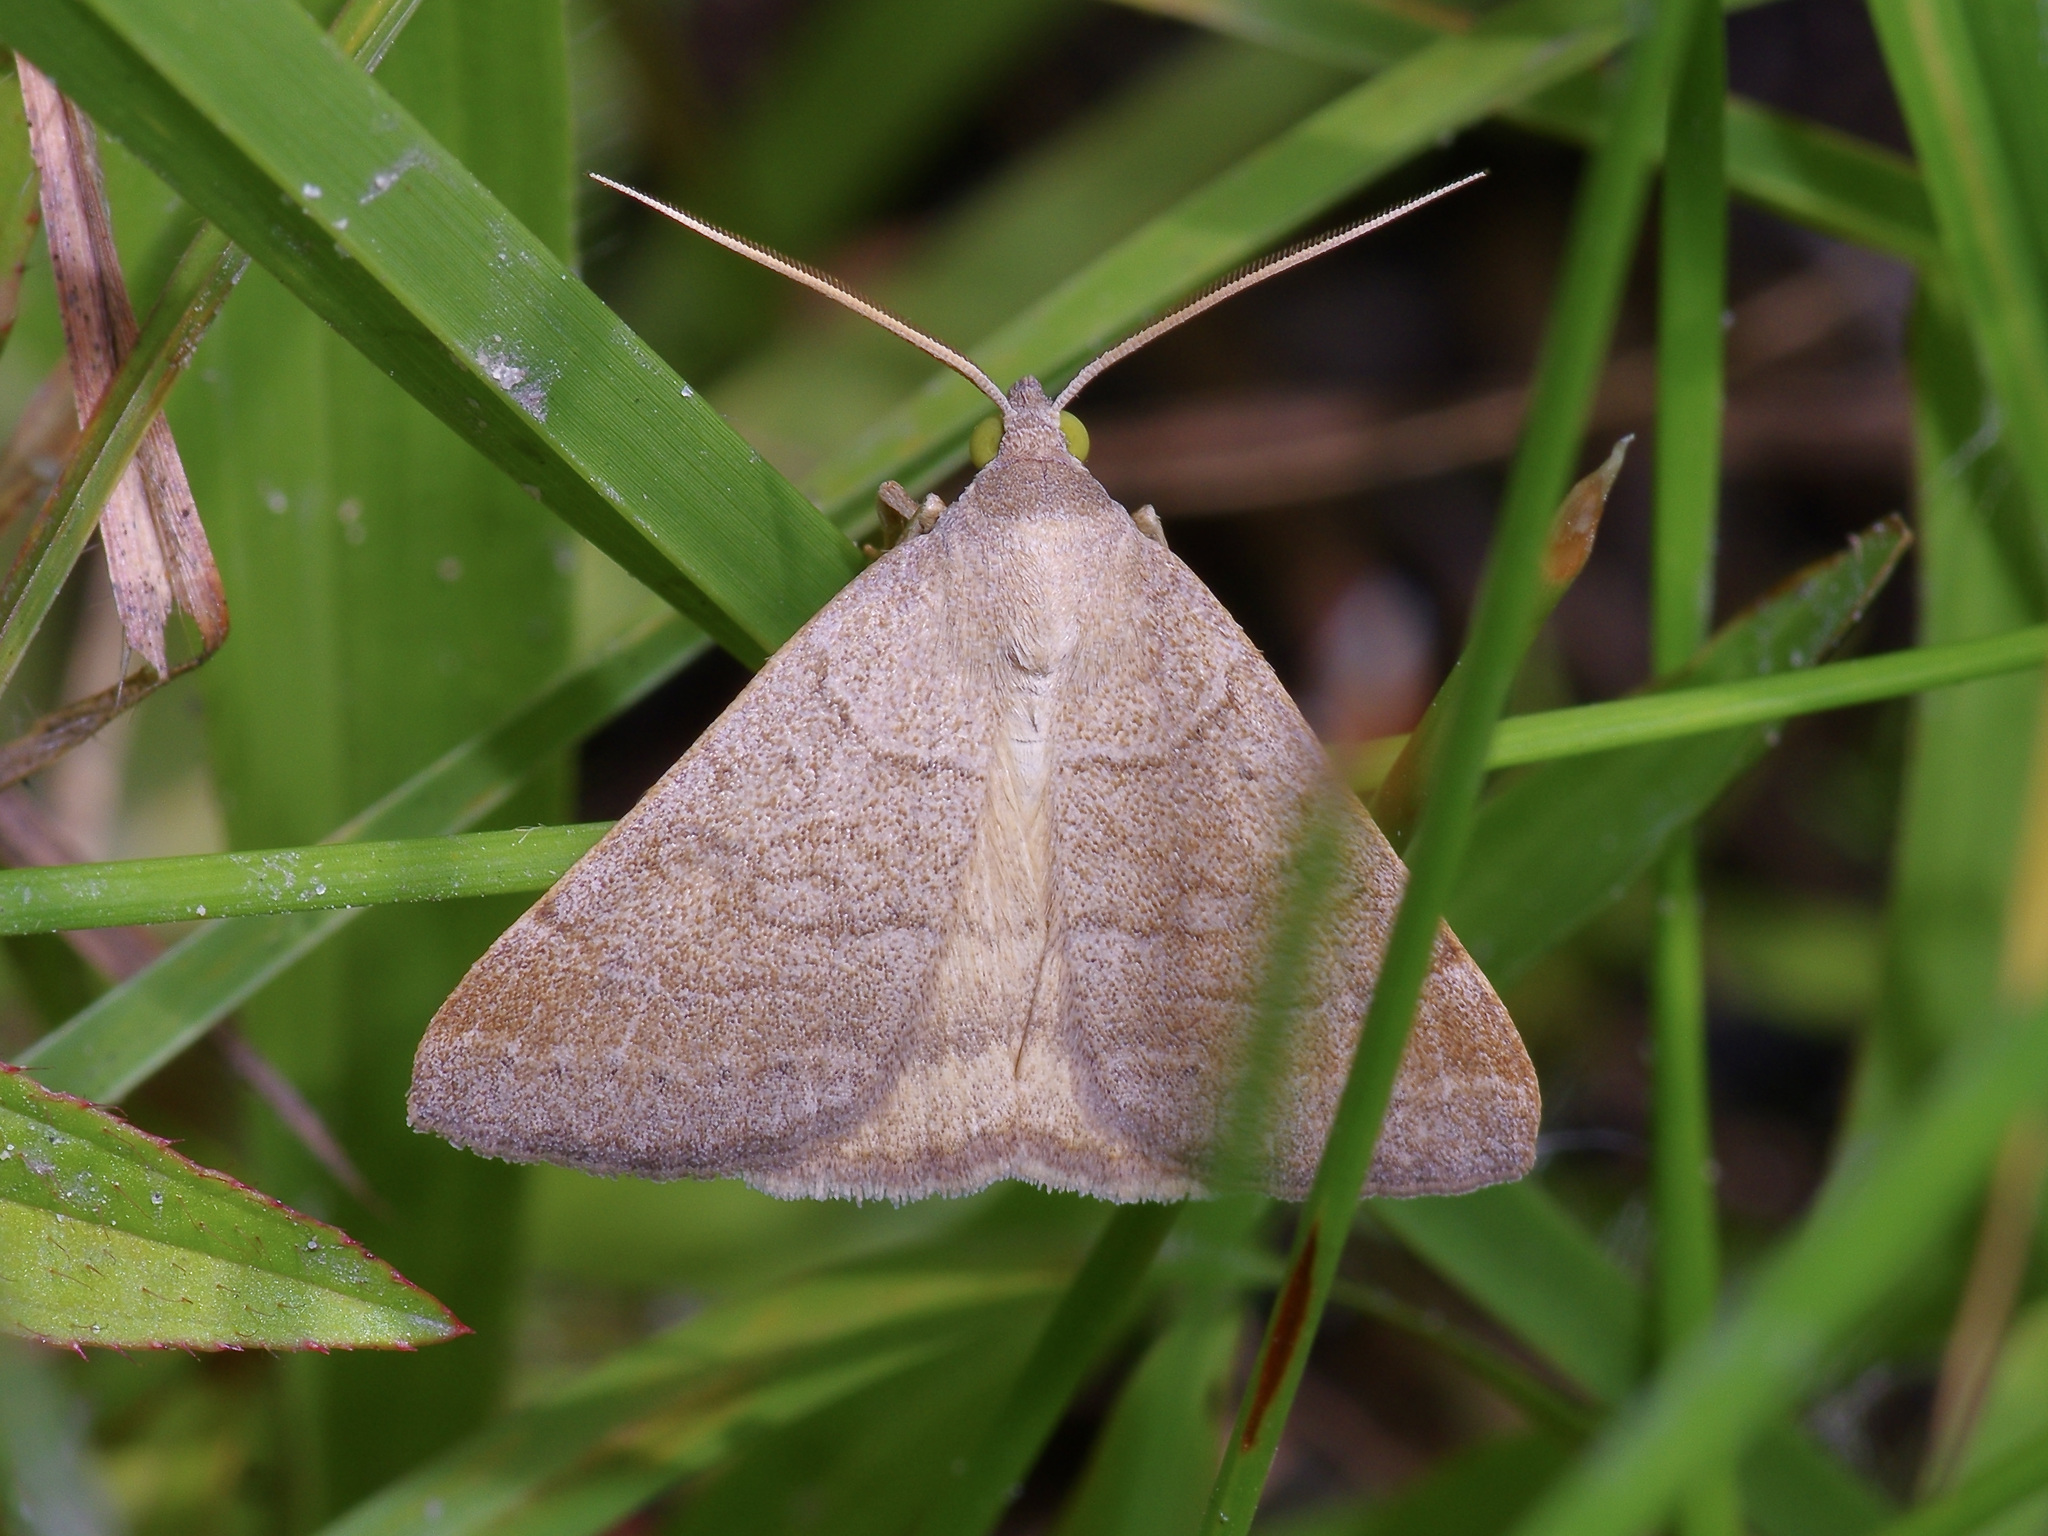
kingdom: Animalia
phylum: Arthropoda
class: Insecta
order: Lepidoptera
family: Erebidae
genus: Caenurgia
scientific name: Caenurgia chloropha
